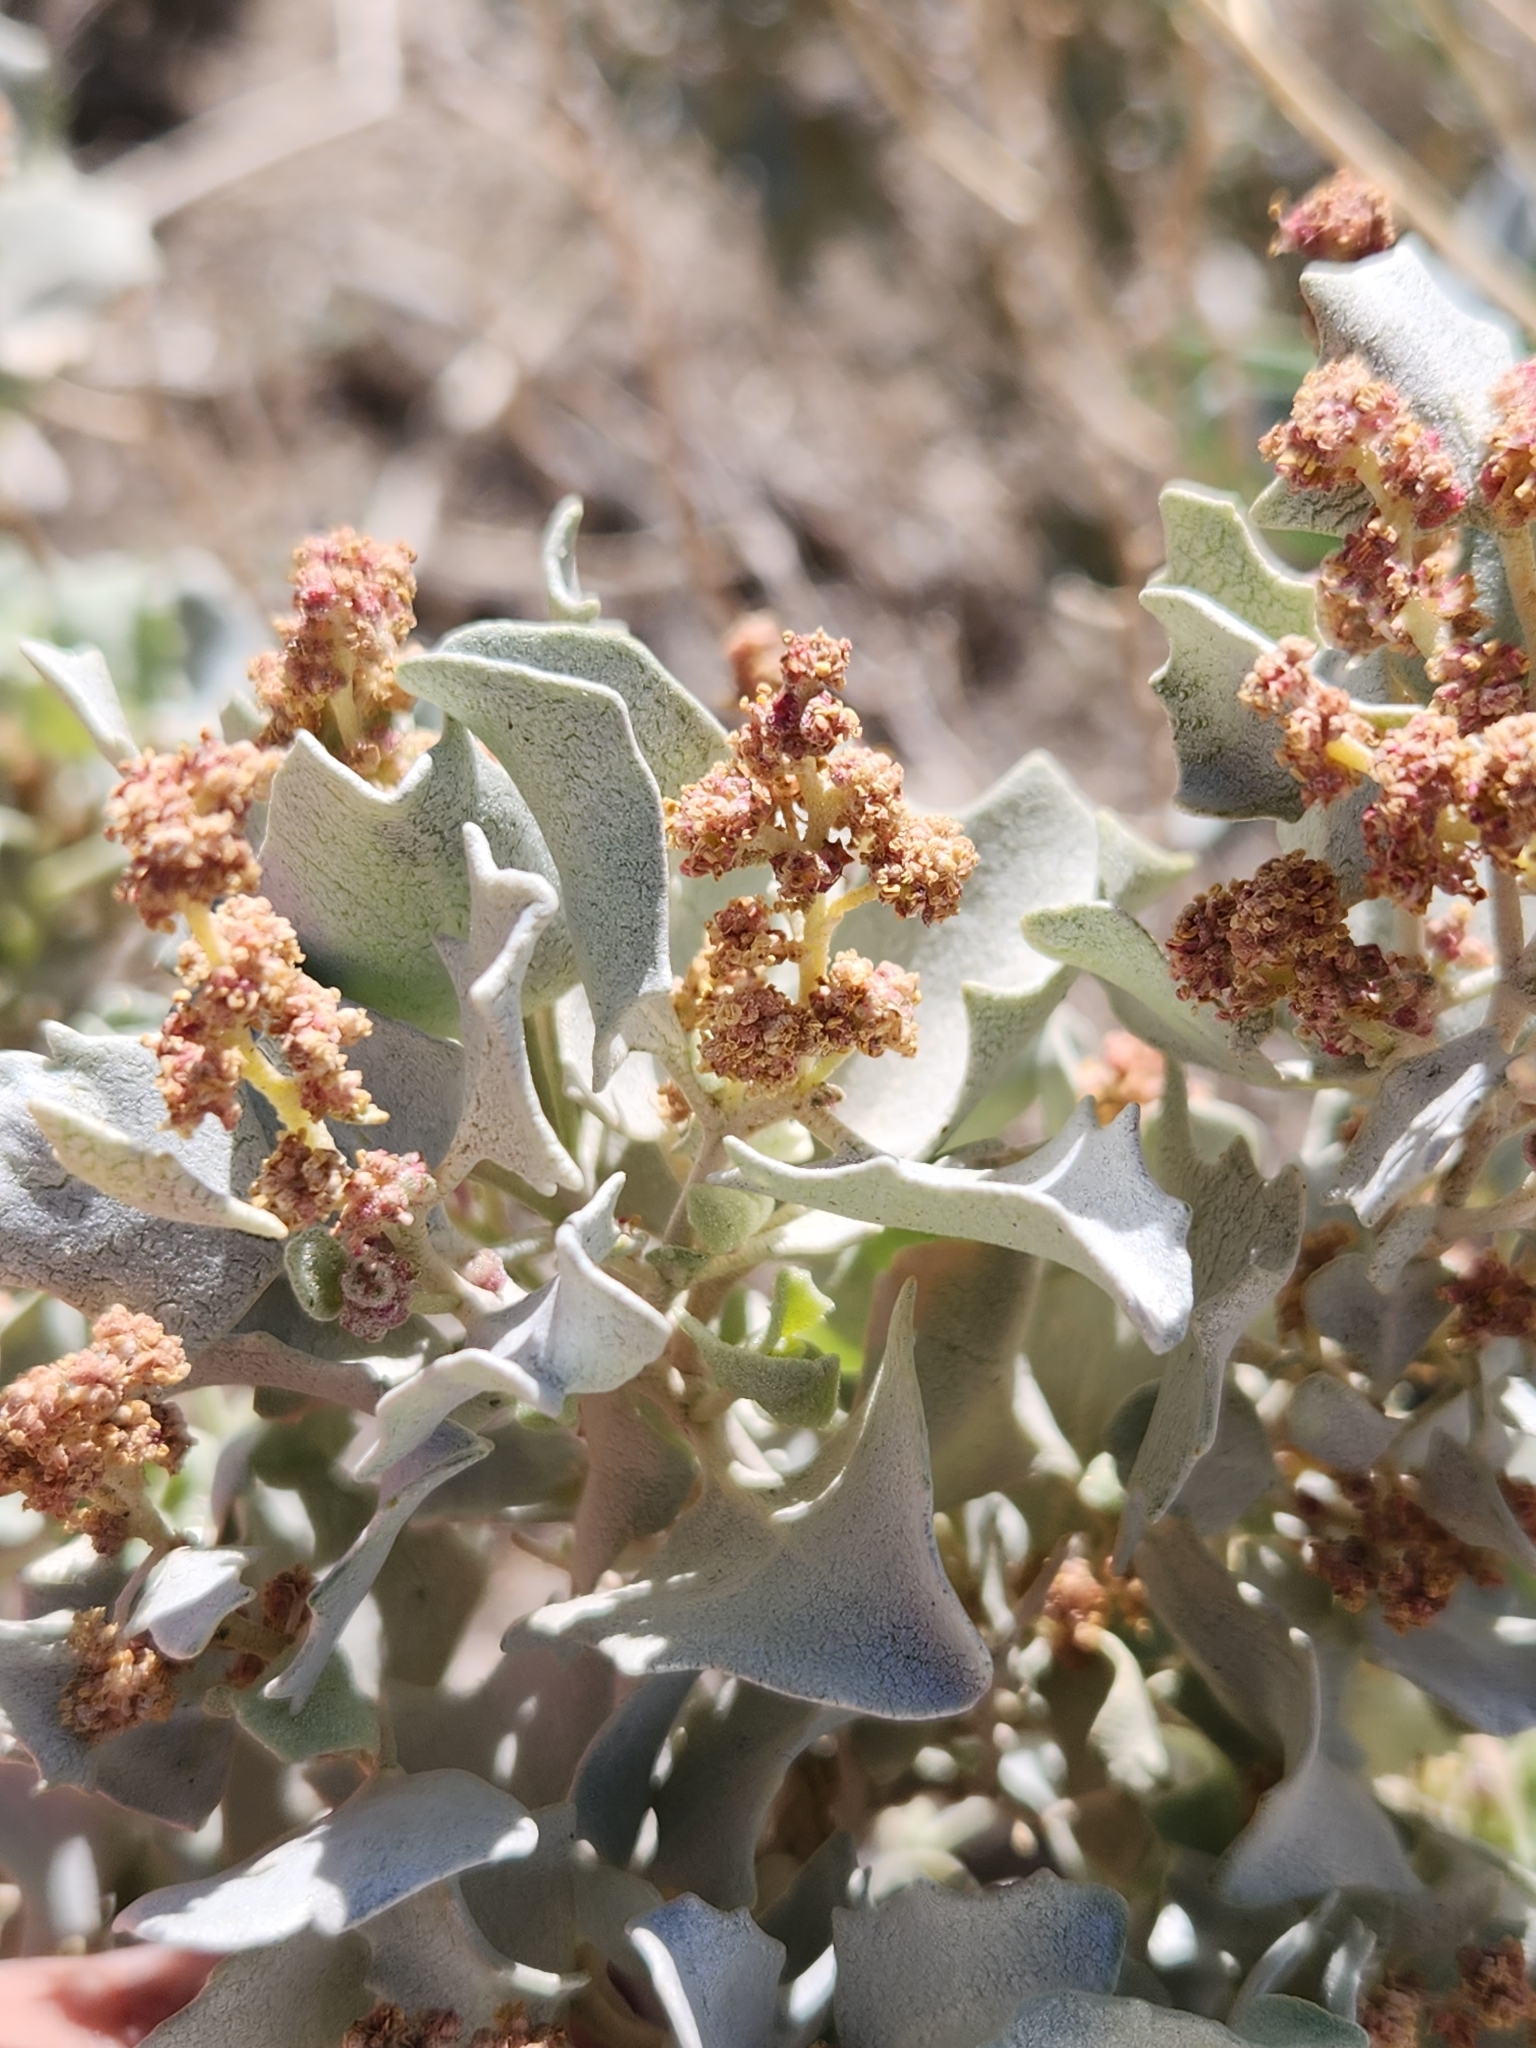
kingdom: Plantae
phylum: Tracheophyta
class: Magnoliopsida
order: Caryophyllales
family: Amaranthaceae
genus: Atriplex
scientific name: Atriplex hymenelytra
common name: Desert-holly
